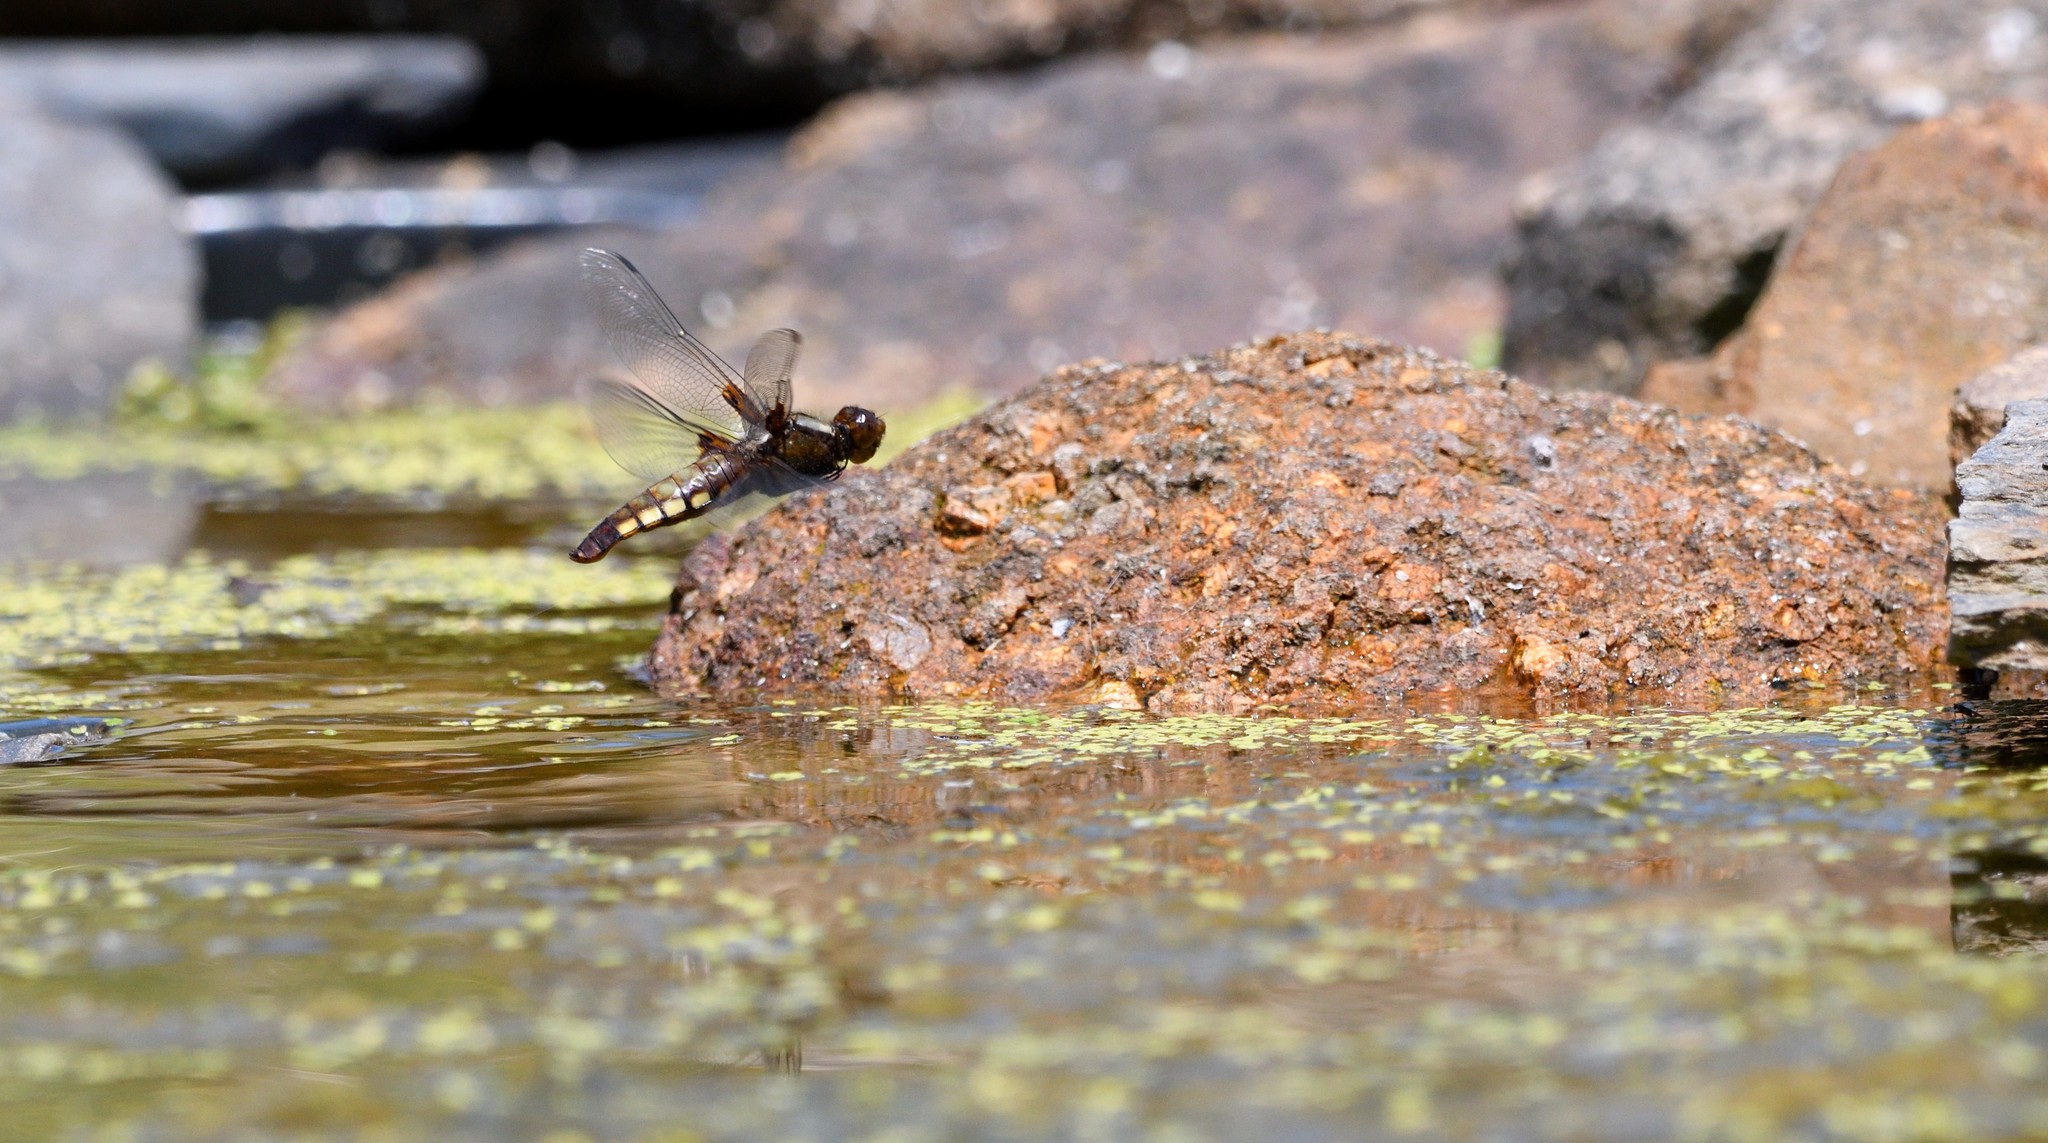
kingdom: Animalia
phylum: Arthropoda
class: Insecta
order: Odonata
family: Libellulidae
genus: Libellula
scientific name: Libellula depressa
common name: Broad-bodied chaser
